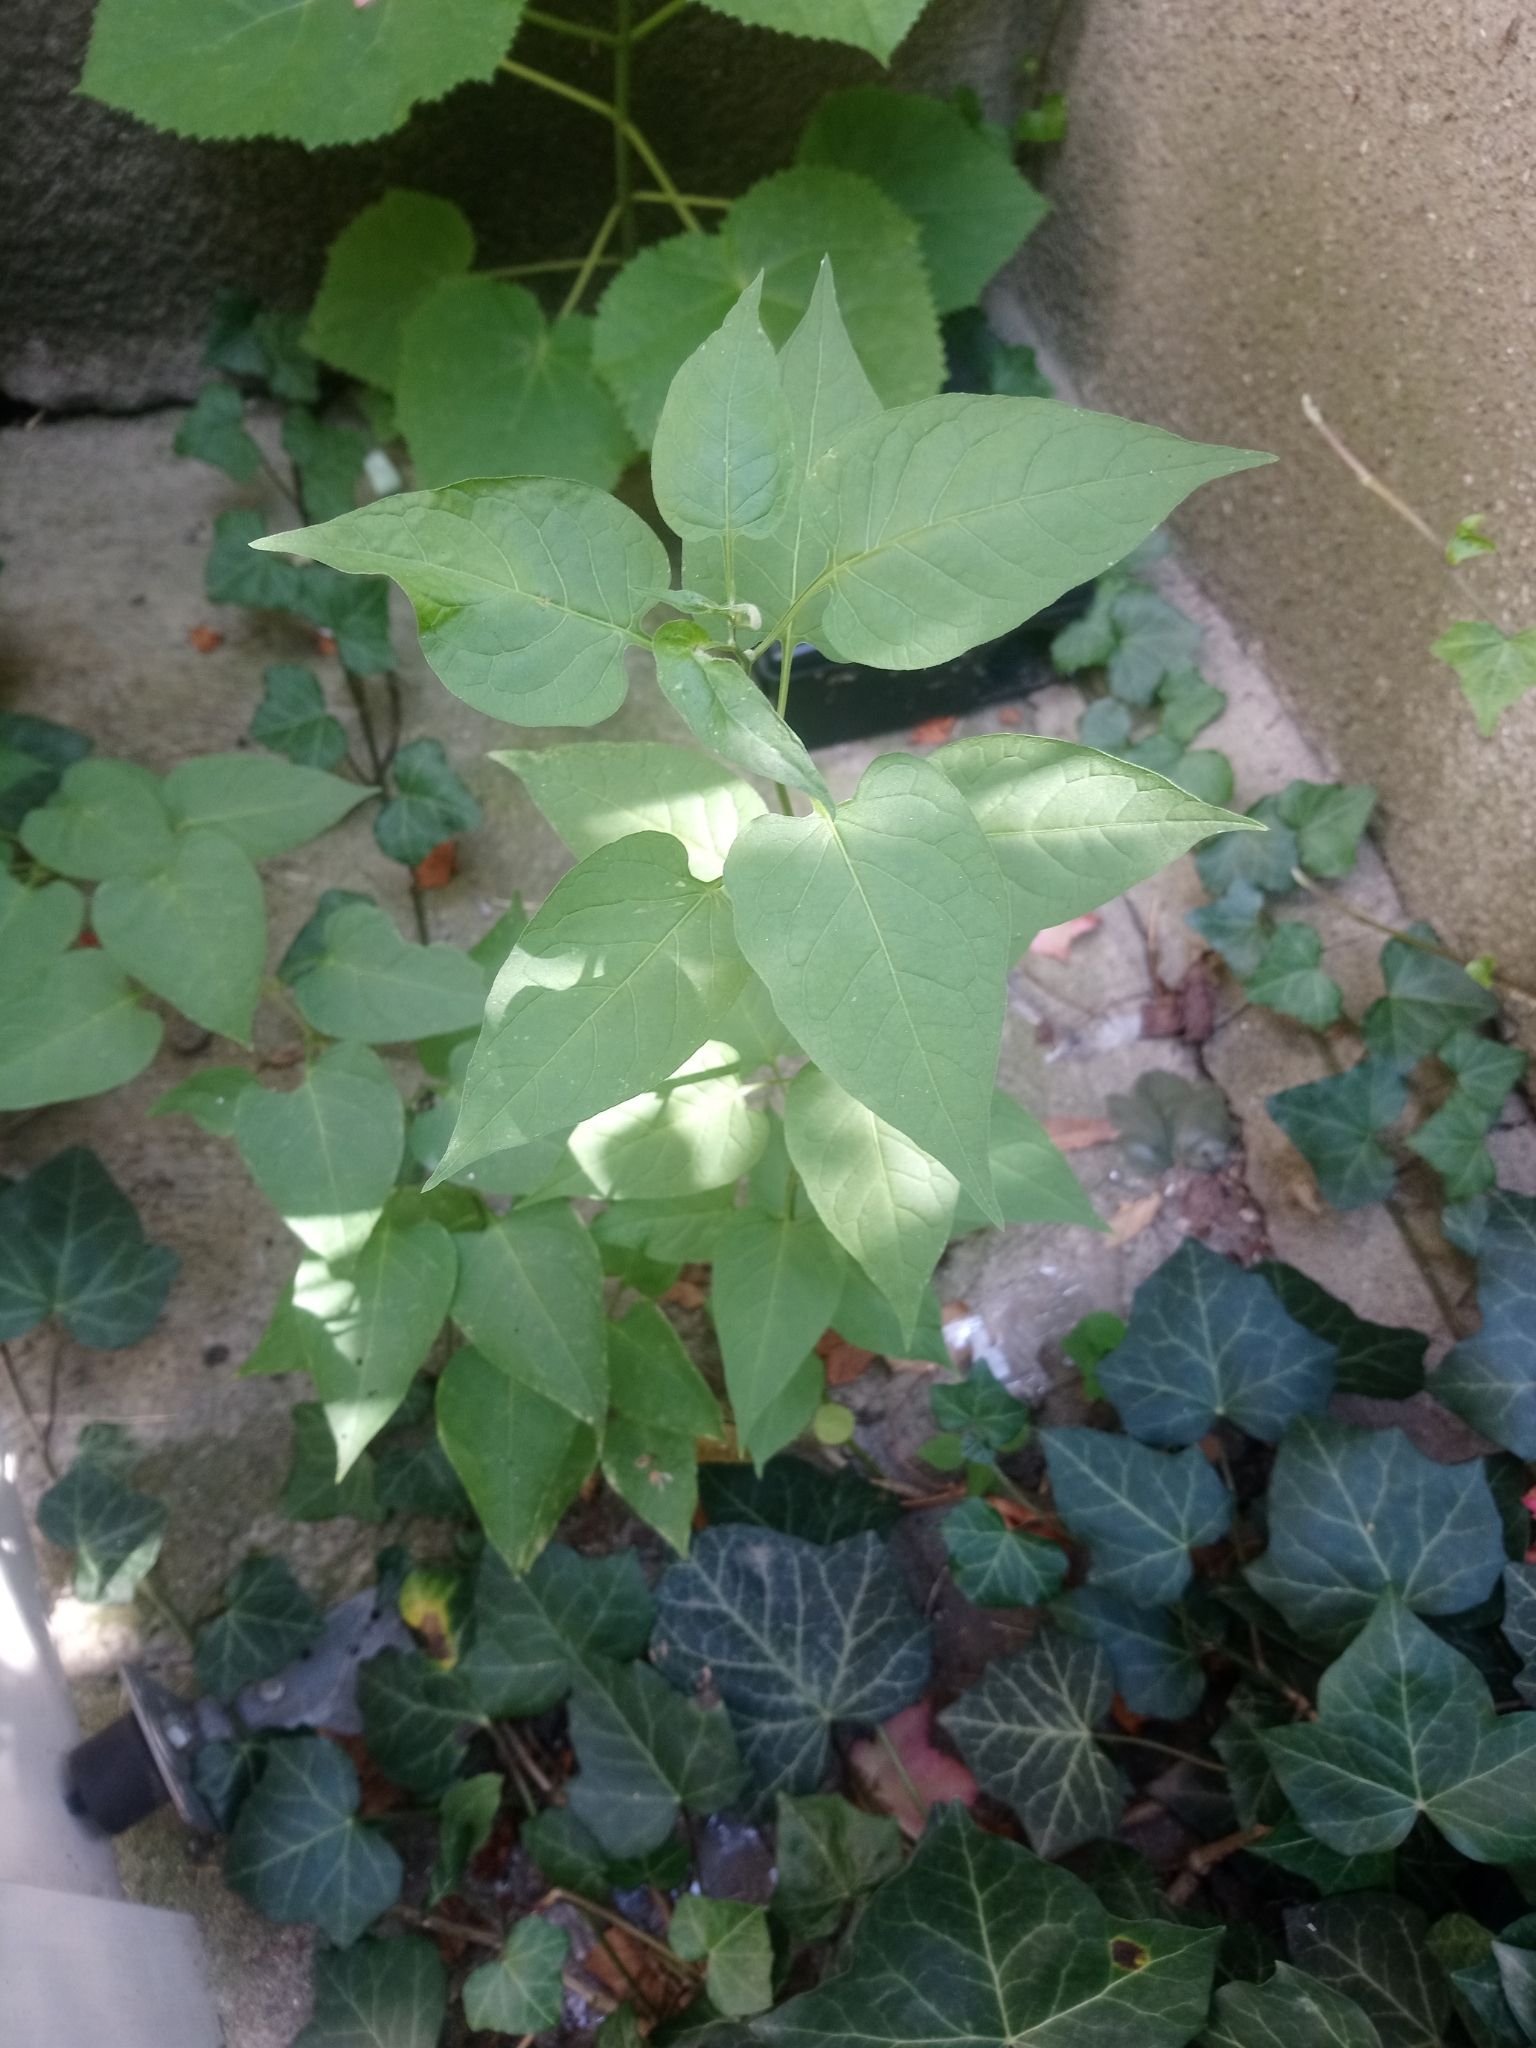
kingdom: Plantae
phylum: Tracheophyta
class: Magnoliopsida
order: Solanales
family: Solanaceae
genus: Solanum
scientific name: Solanum dulcamara
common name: Climbing nightshade
